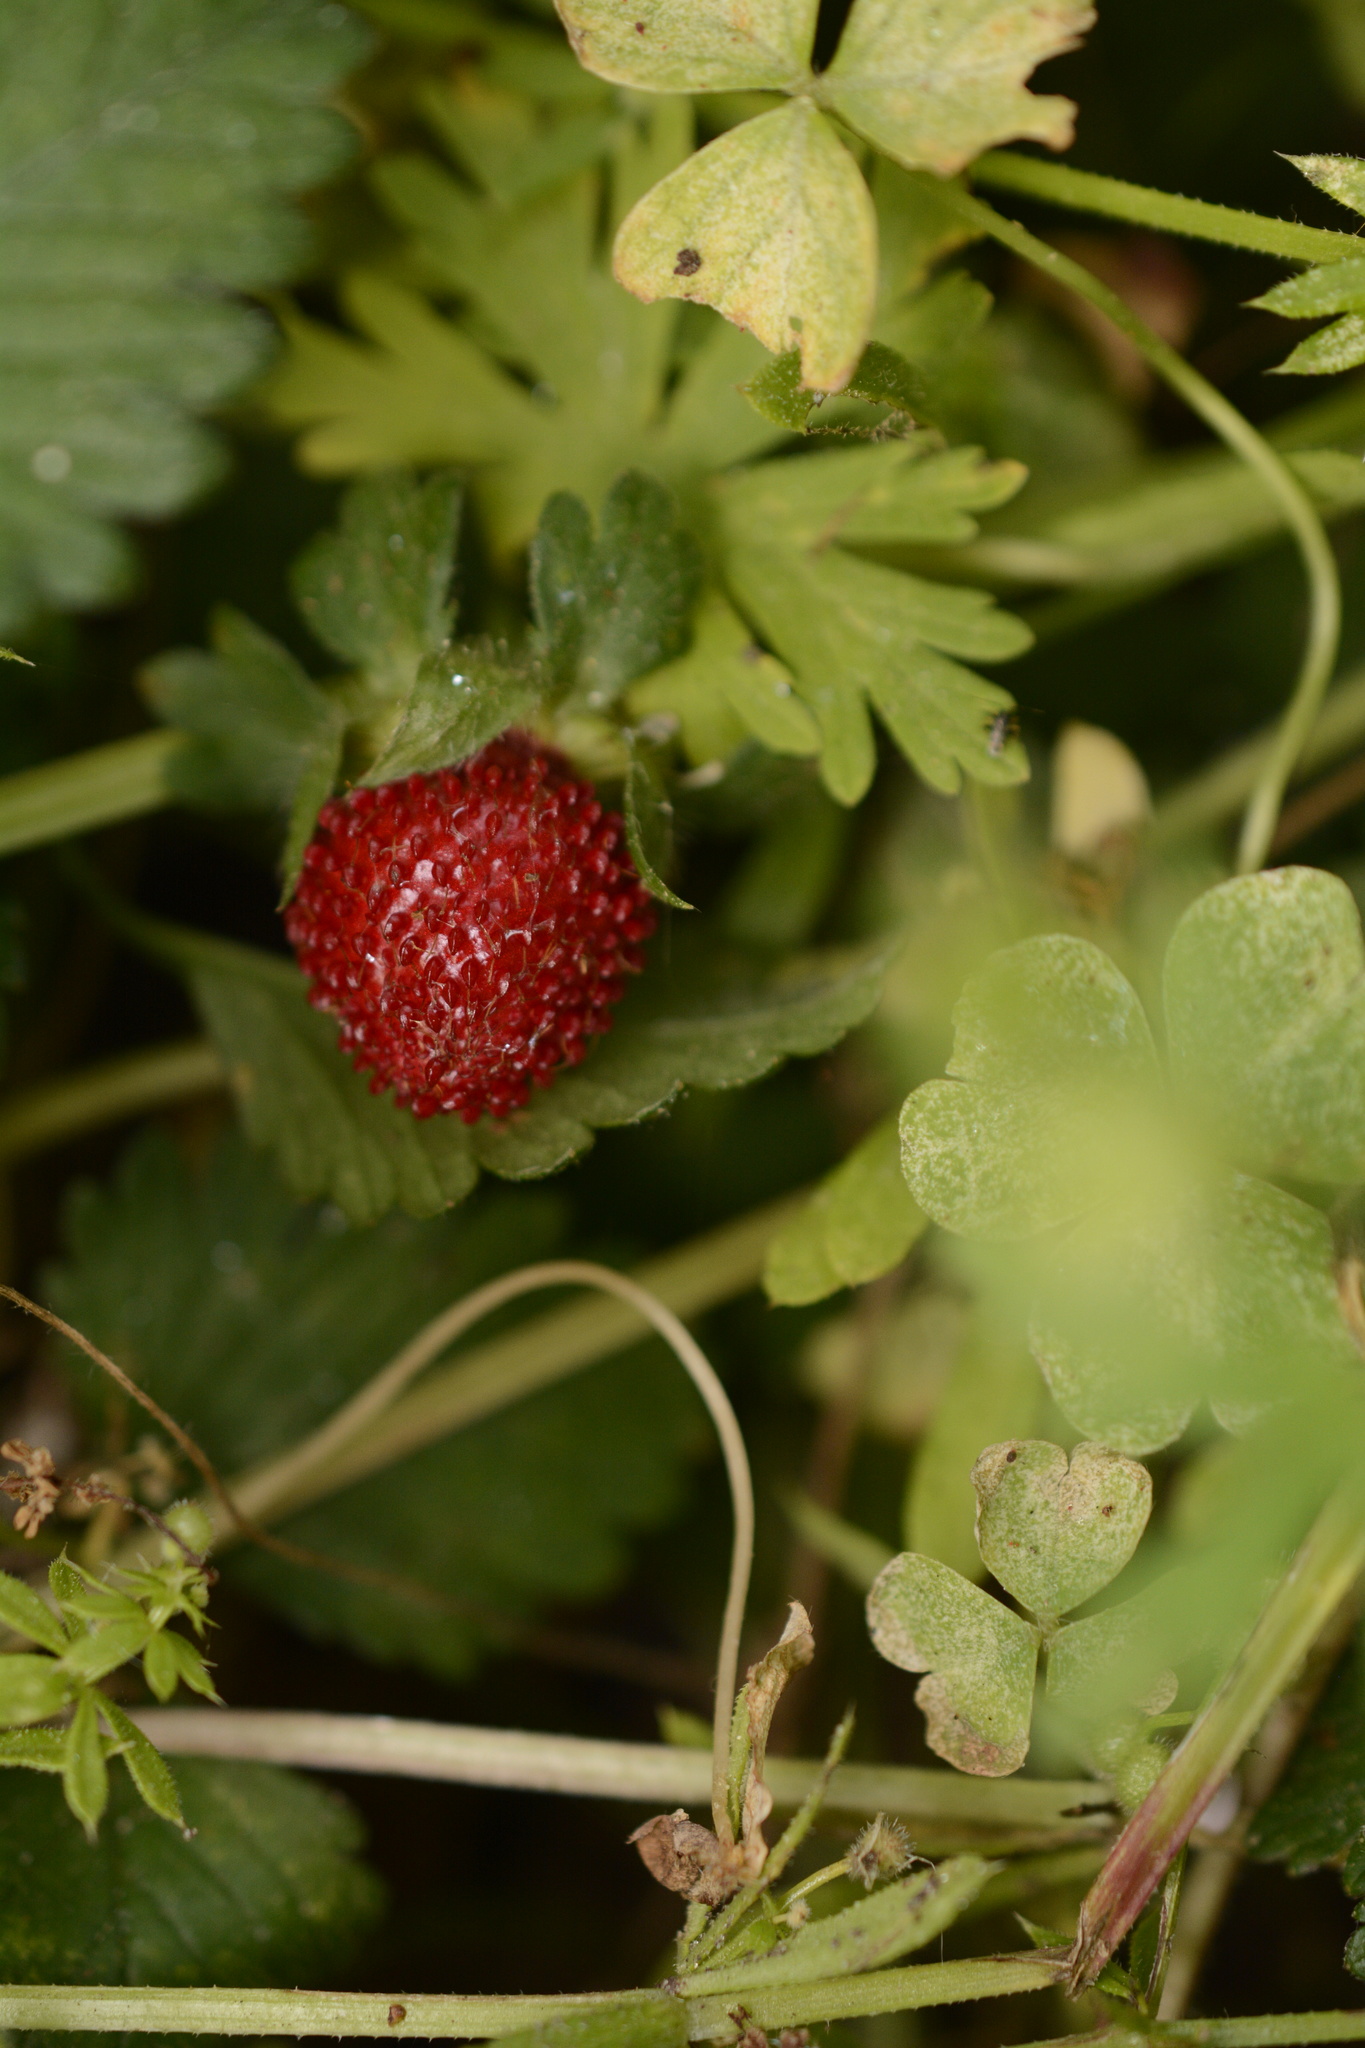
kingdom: Plantae
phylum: Tracheophyta
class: Magnoliopsida
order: Rosales
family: Rosaceae
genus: Potentilla
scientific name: Potentilla indica
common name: Yellow-flowered strawberry
